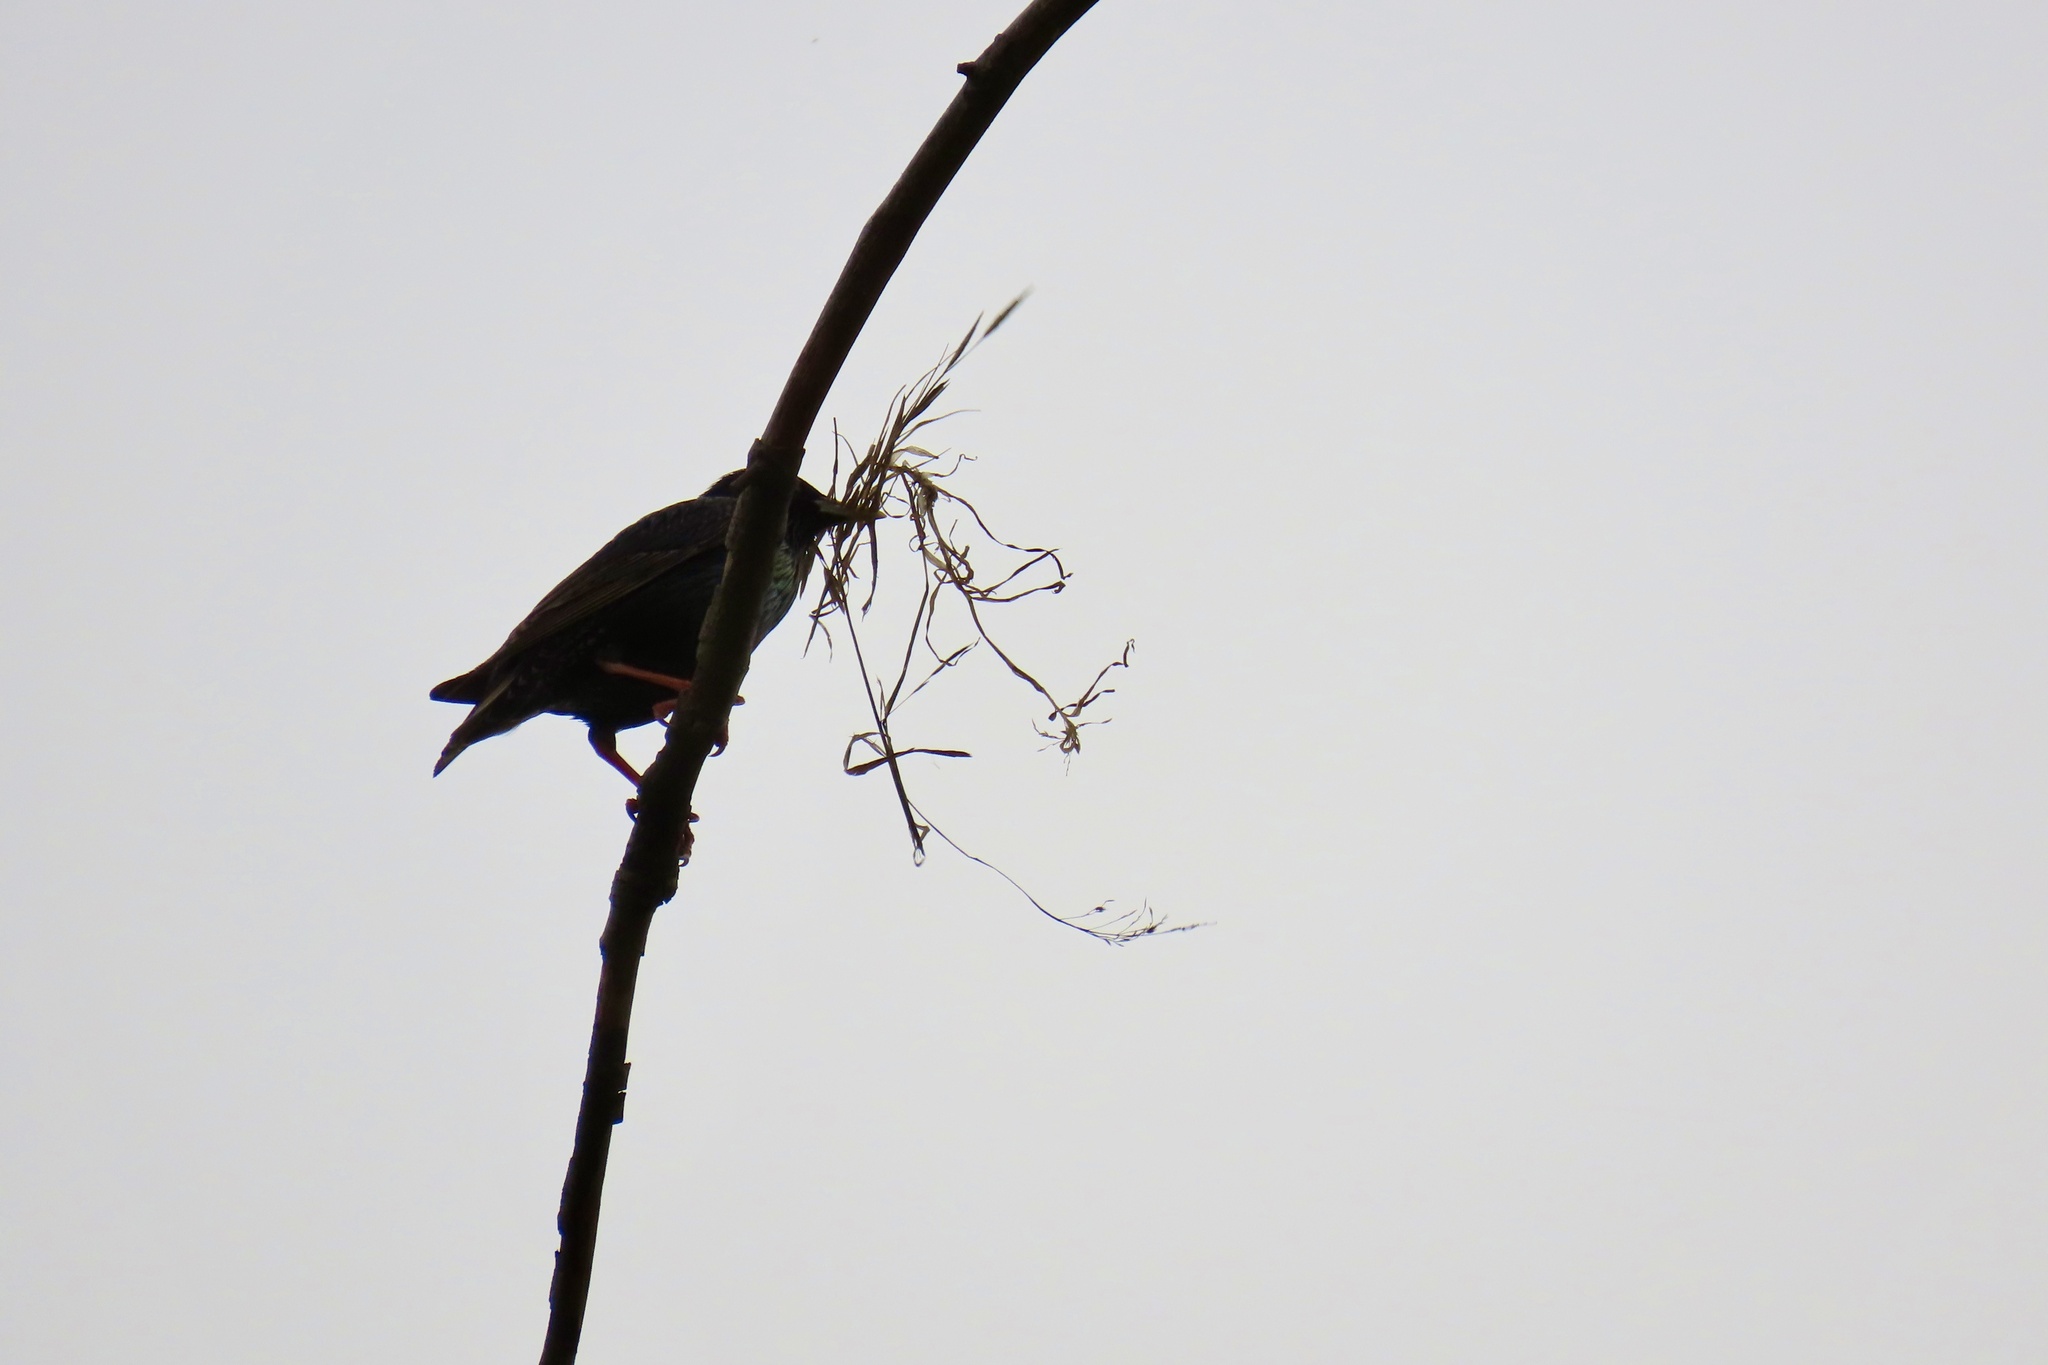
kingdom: Animalia
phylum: Chordata
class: Aves
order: Passeriformes
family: Sturnidae
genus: Sturnus
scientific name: Sturnus vulgaris
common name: Common starling
